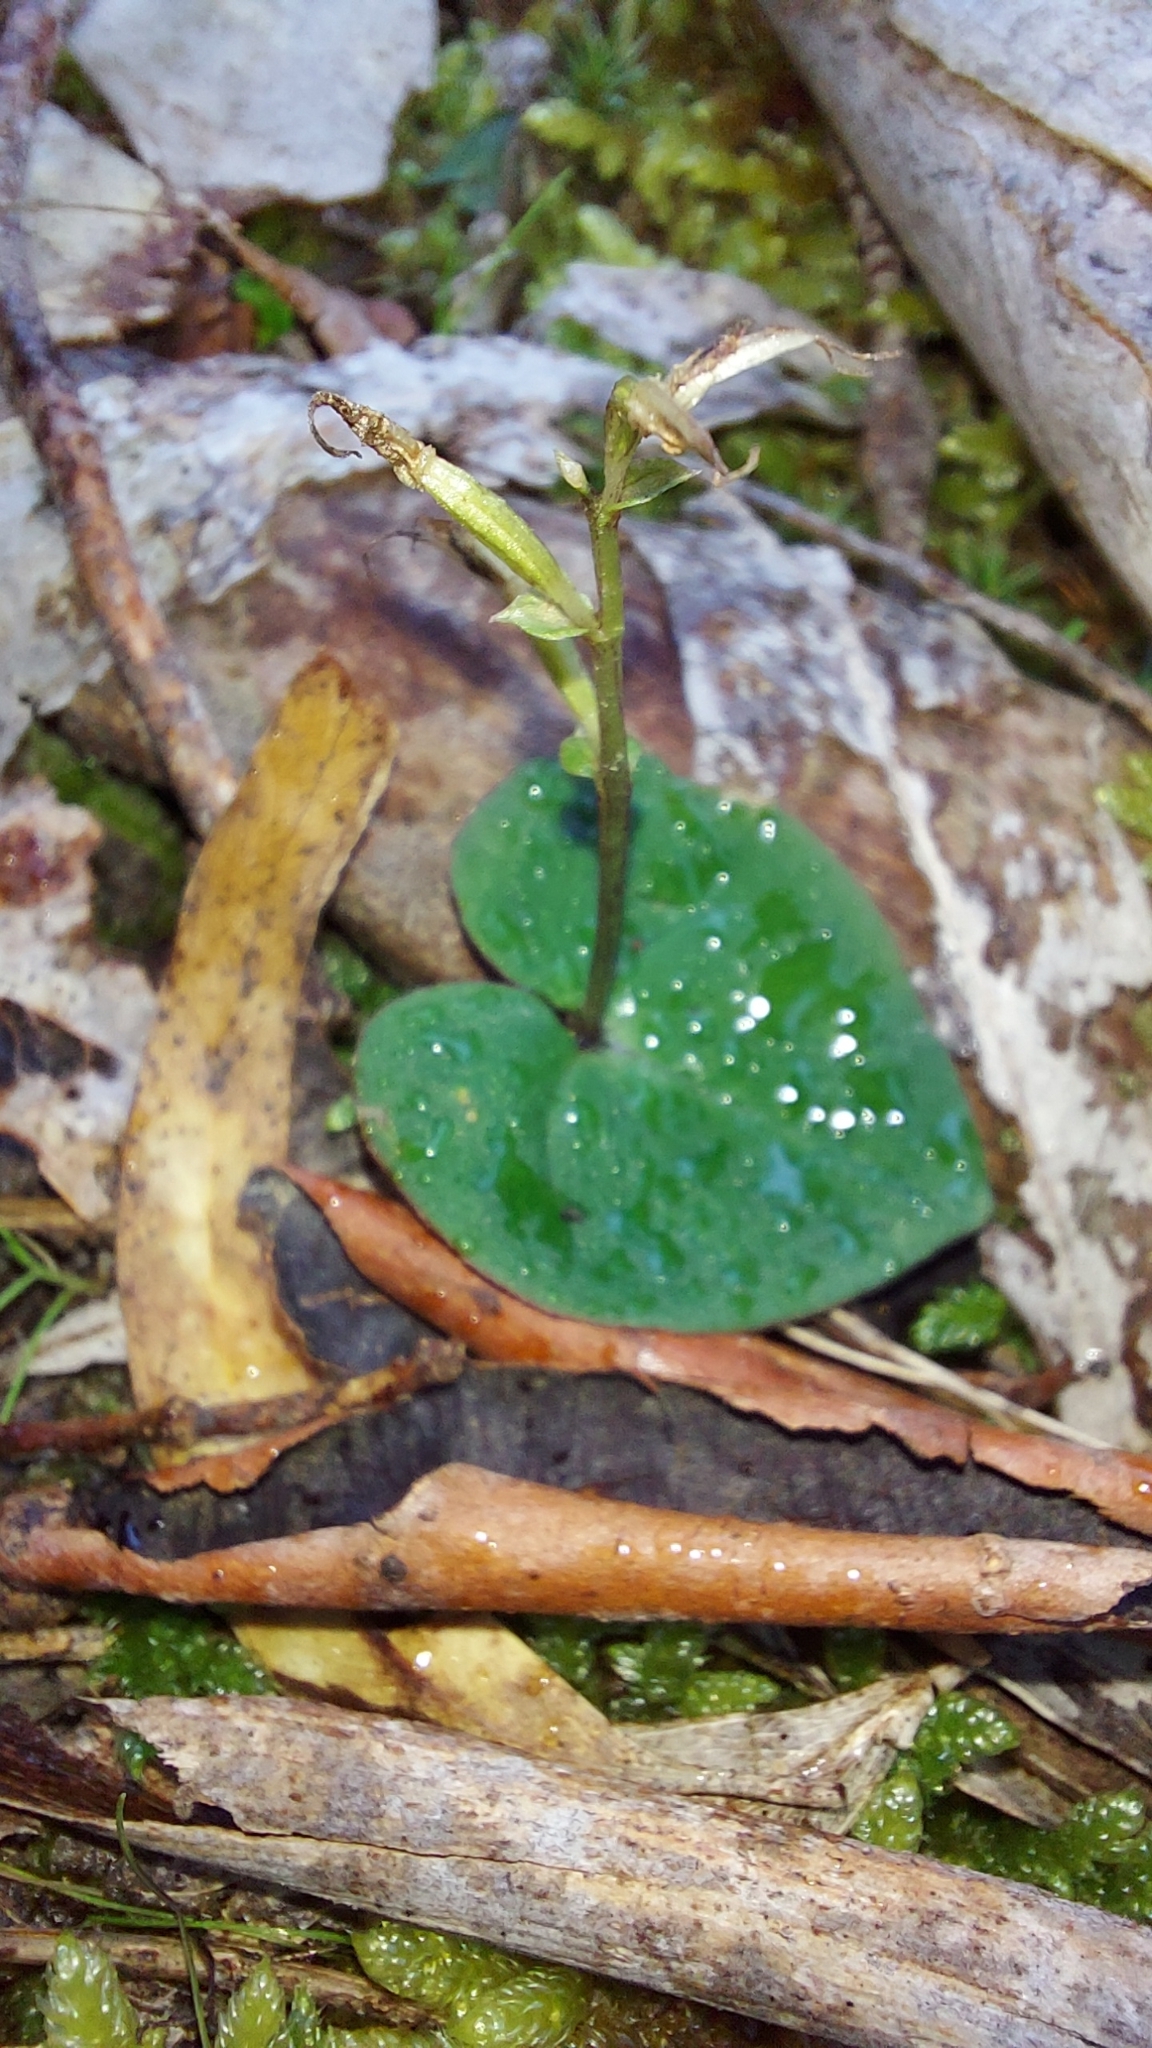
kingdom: Plantae
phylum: Tracheophyta
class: Liliopsida
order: Asparagales
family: Orchidaceae
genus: Acianthus
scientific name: Acianthus pusillus
